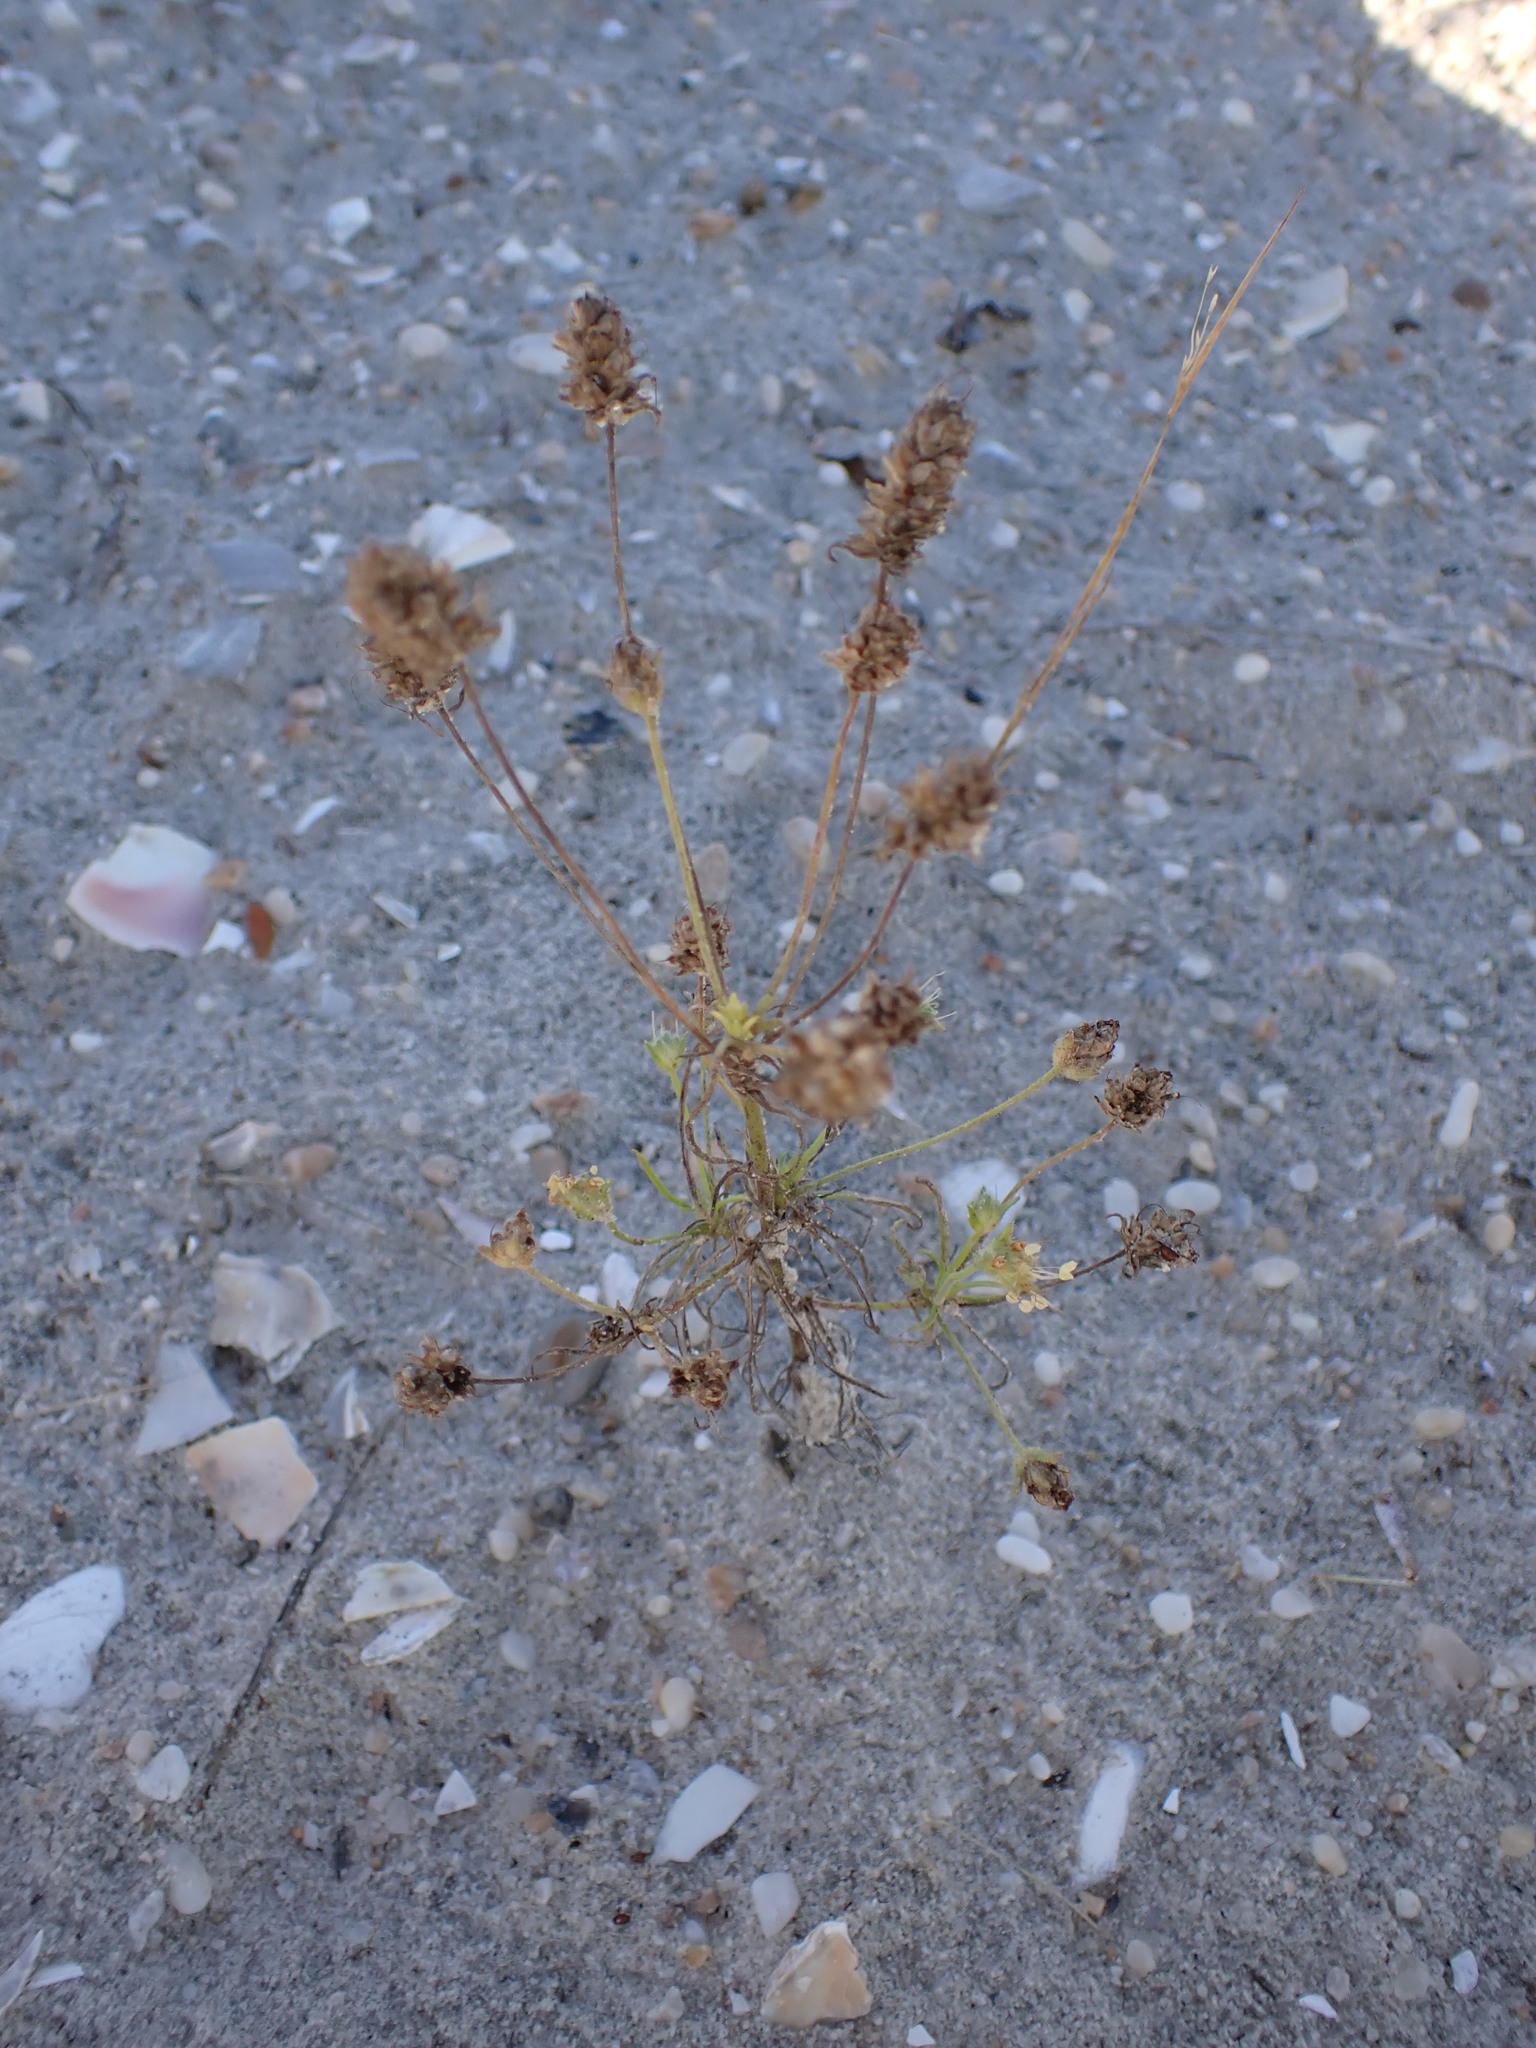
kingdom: Plantae
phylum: Tracheophyta
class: Magnoliopsida
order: Lamiales
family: Plantaginaceae
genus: Plantago
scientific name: Plantago arenaria
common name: Branched plantain
